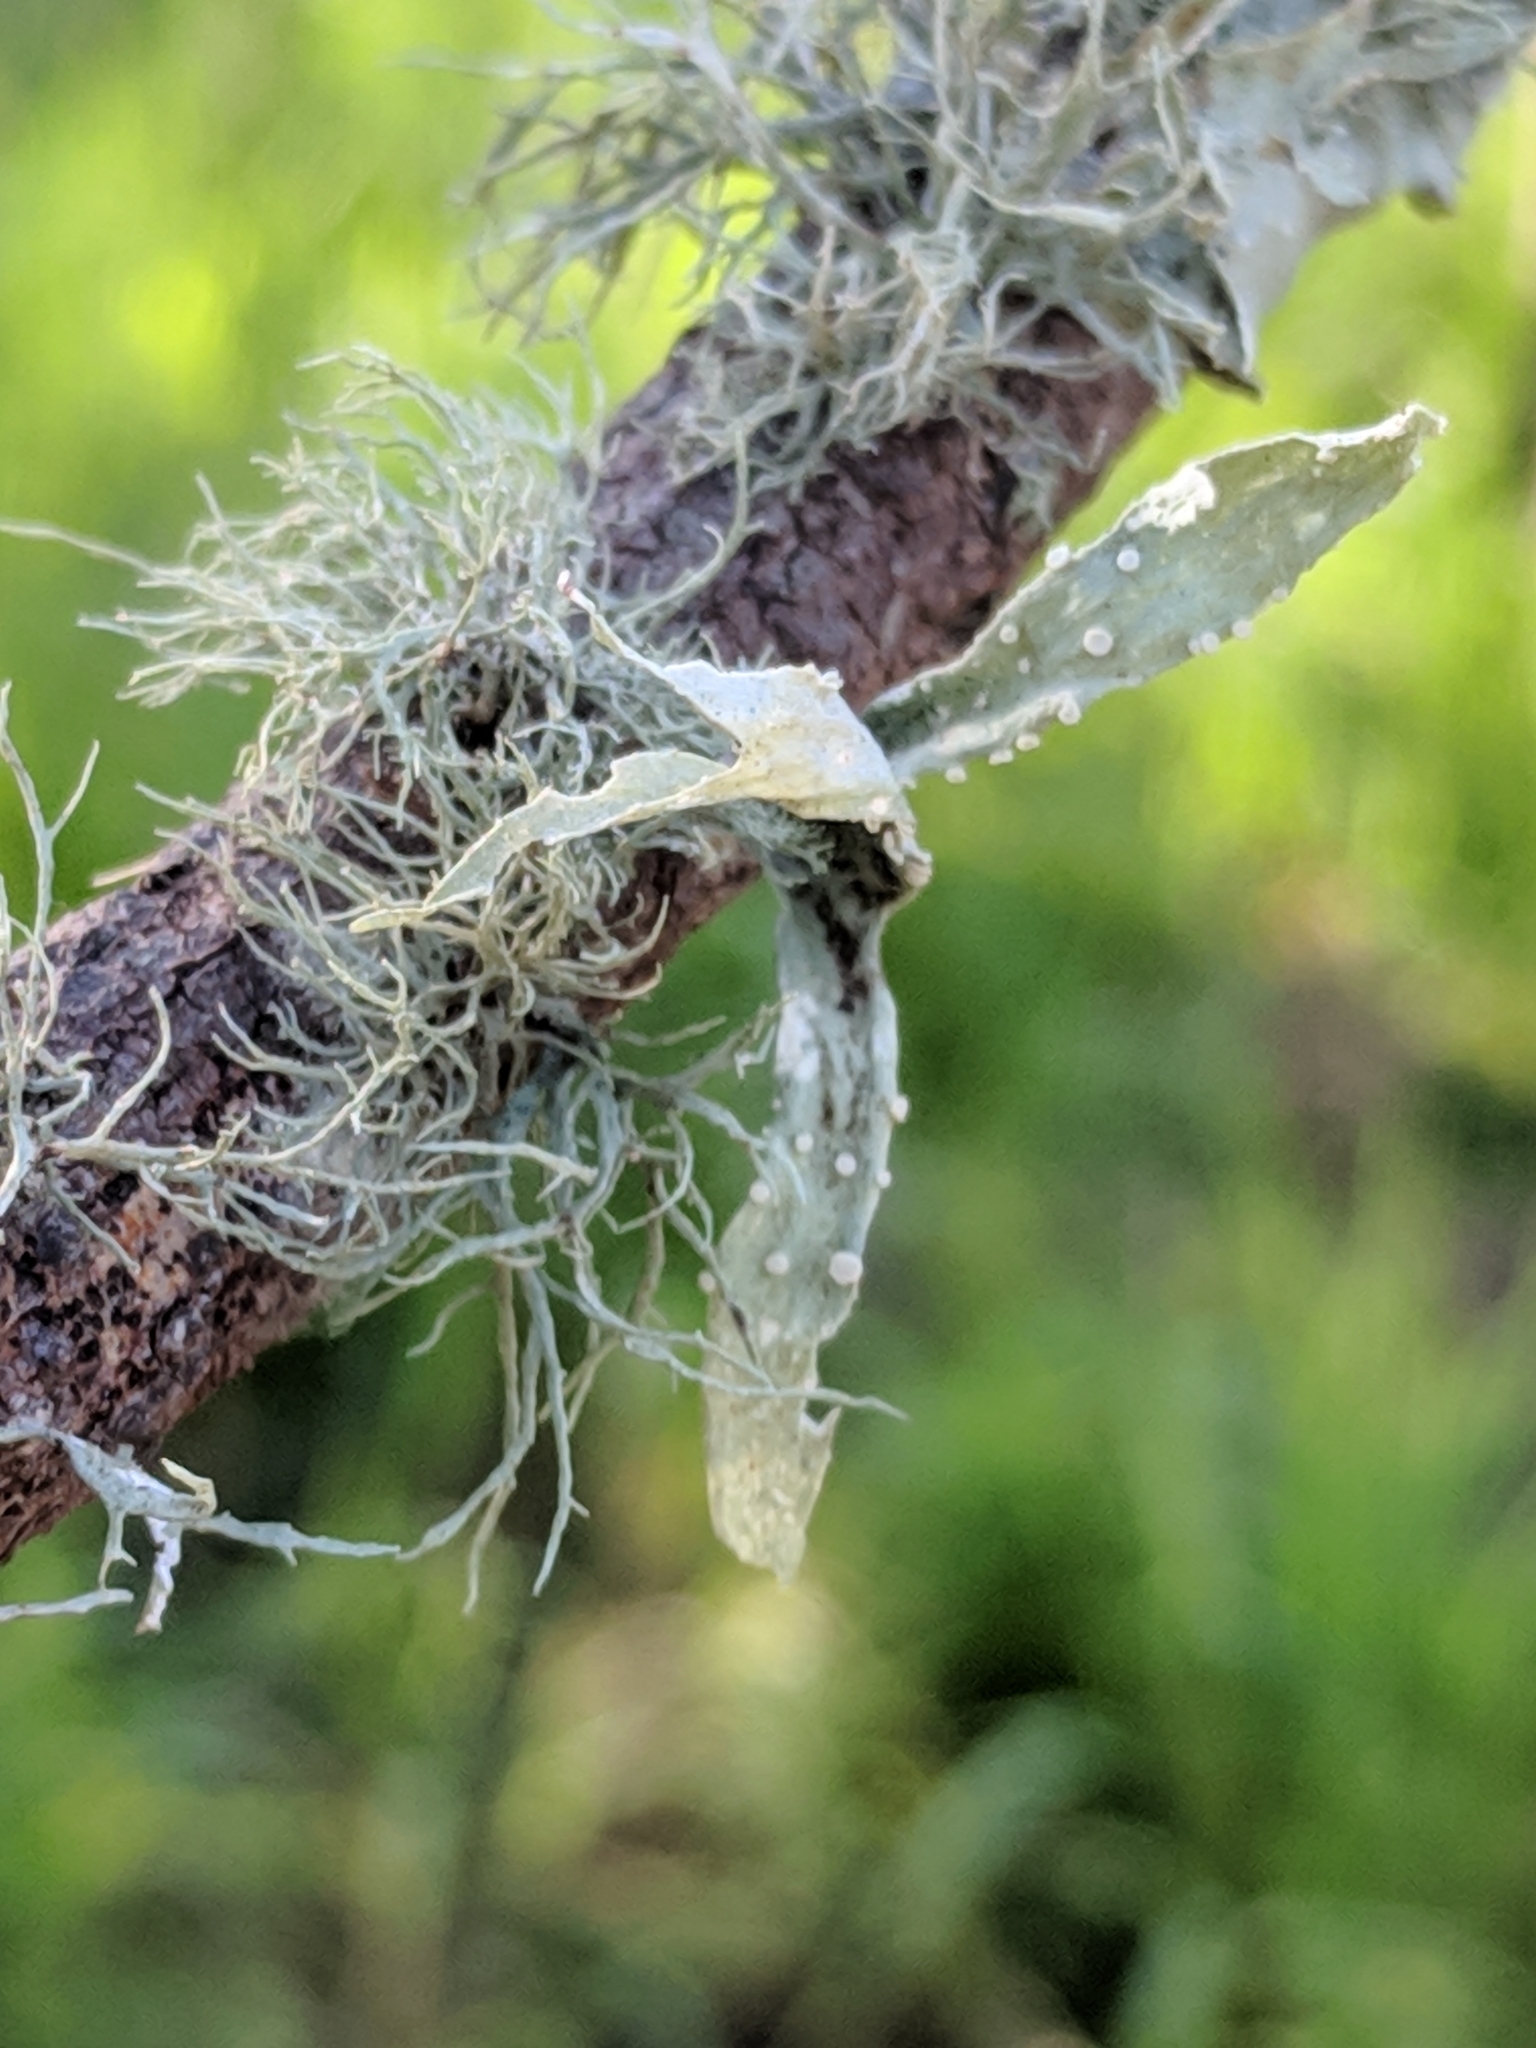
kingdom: Fungi
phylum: Ascomycota
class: Lecanoromycetes
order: Lecanorales
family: Ramalinaceae
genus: Ramalina
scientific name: Ramalina celastri
